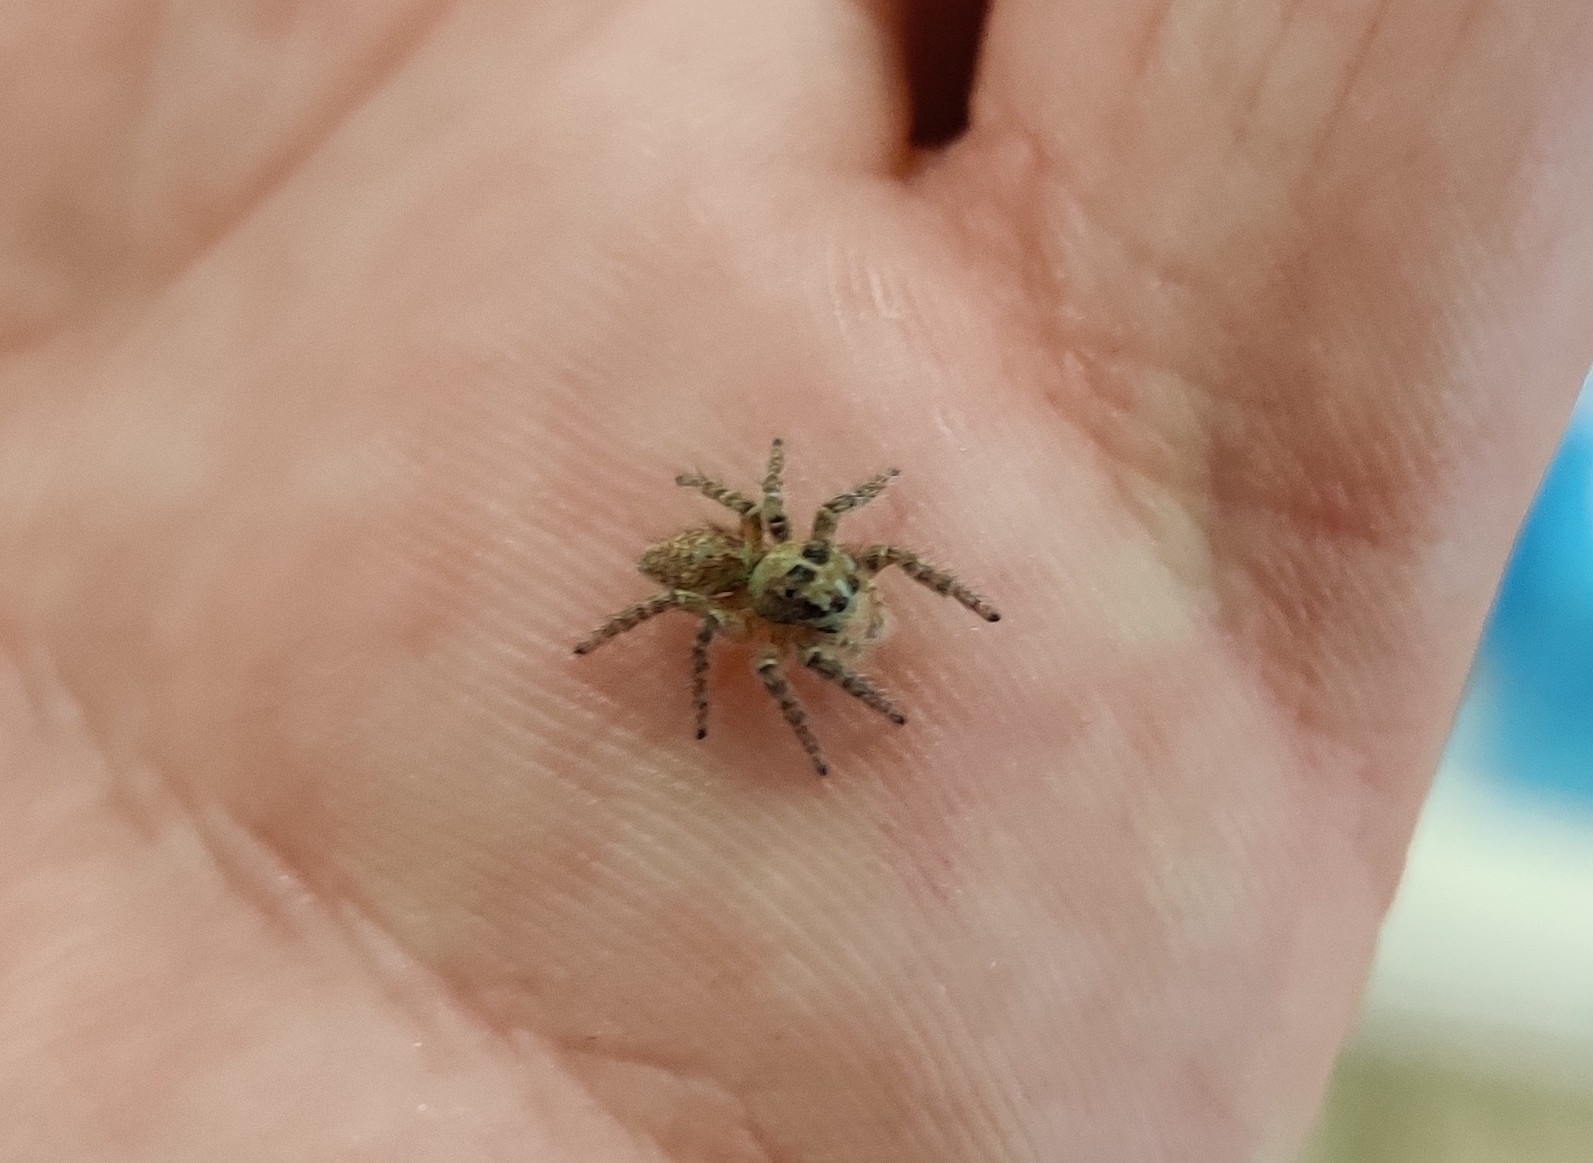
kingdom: Animalia
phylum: Arthropoda
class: Arachnida
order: Araneae
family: Salticidae
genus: Philaeus
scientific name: Philaeus chrysops
